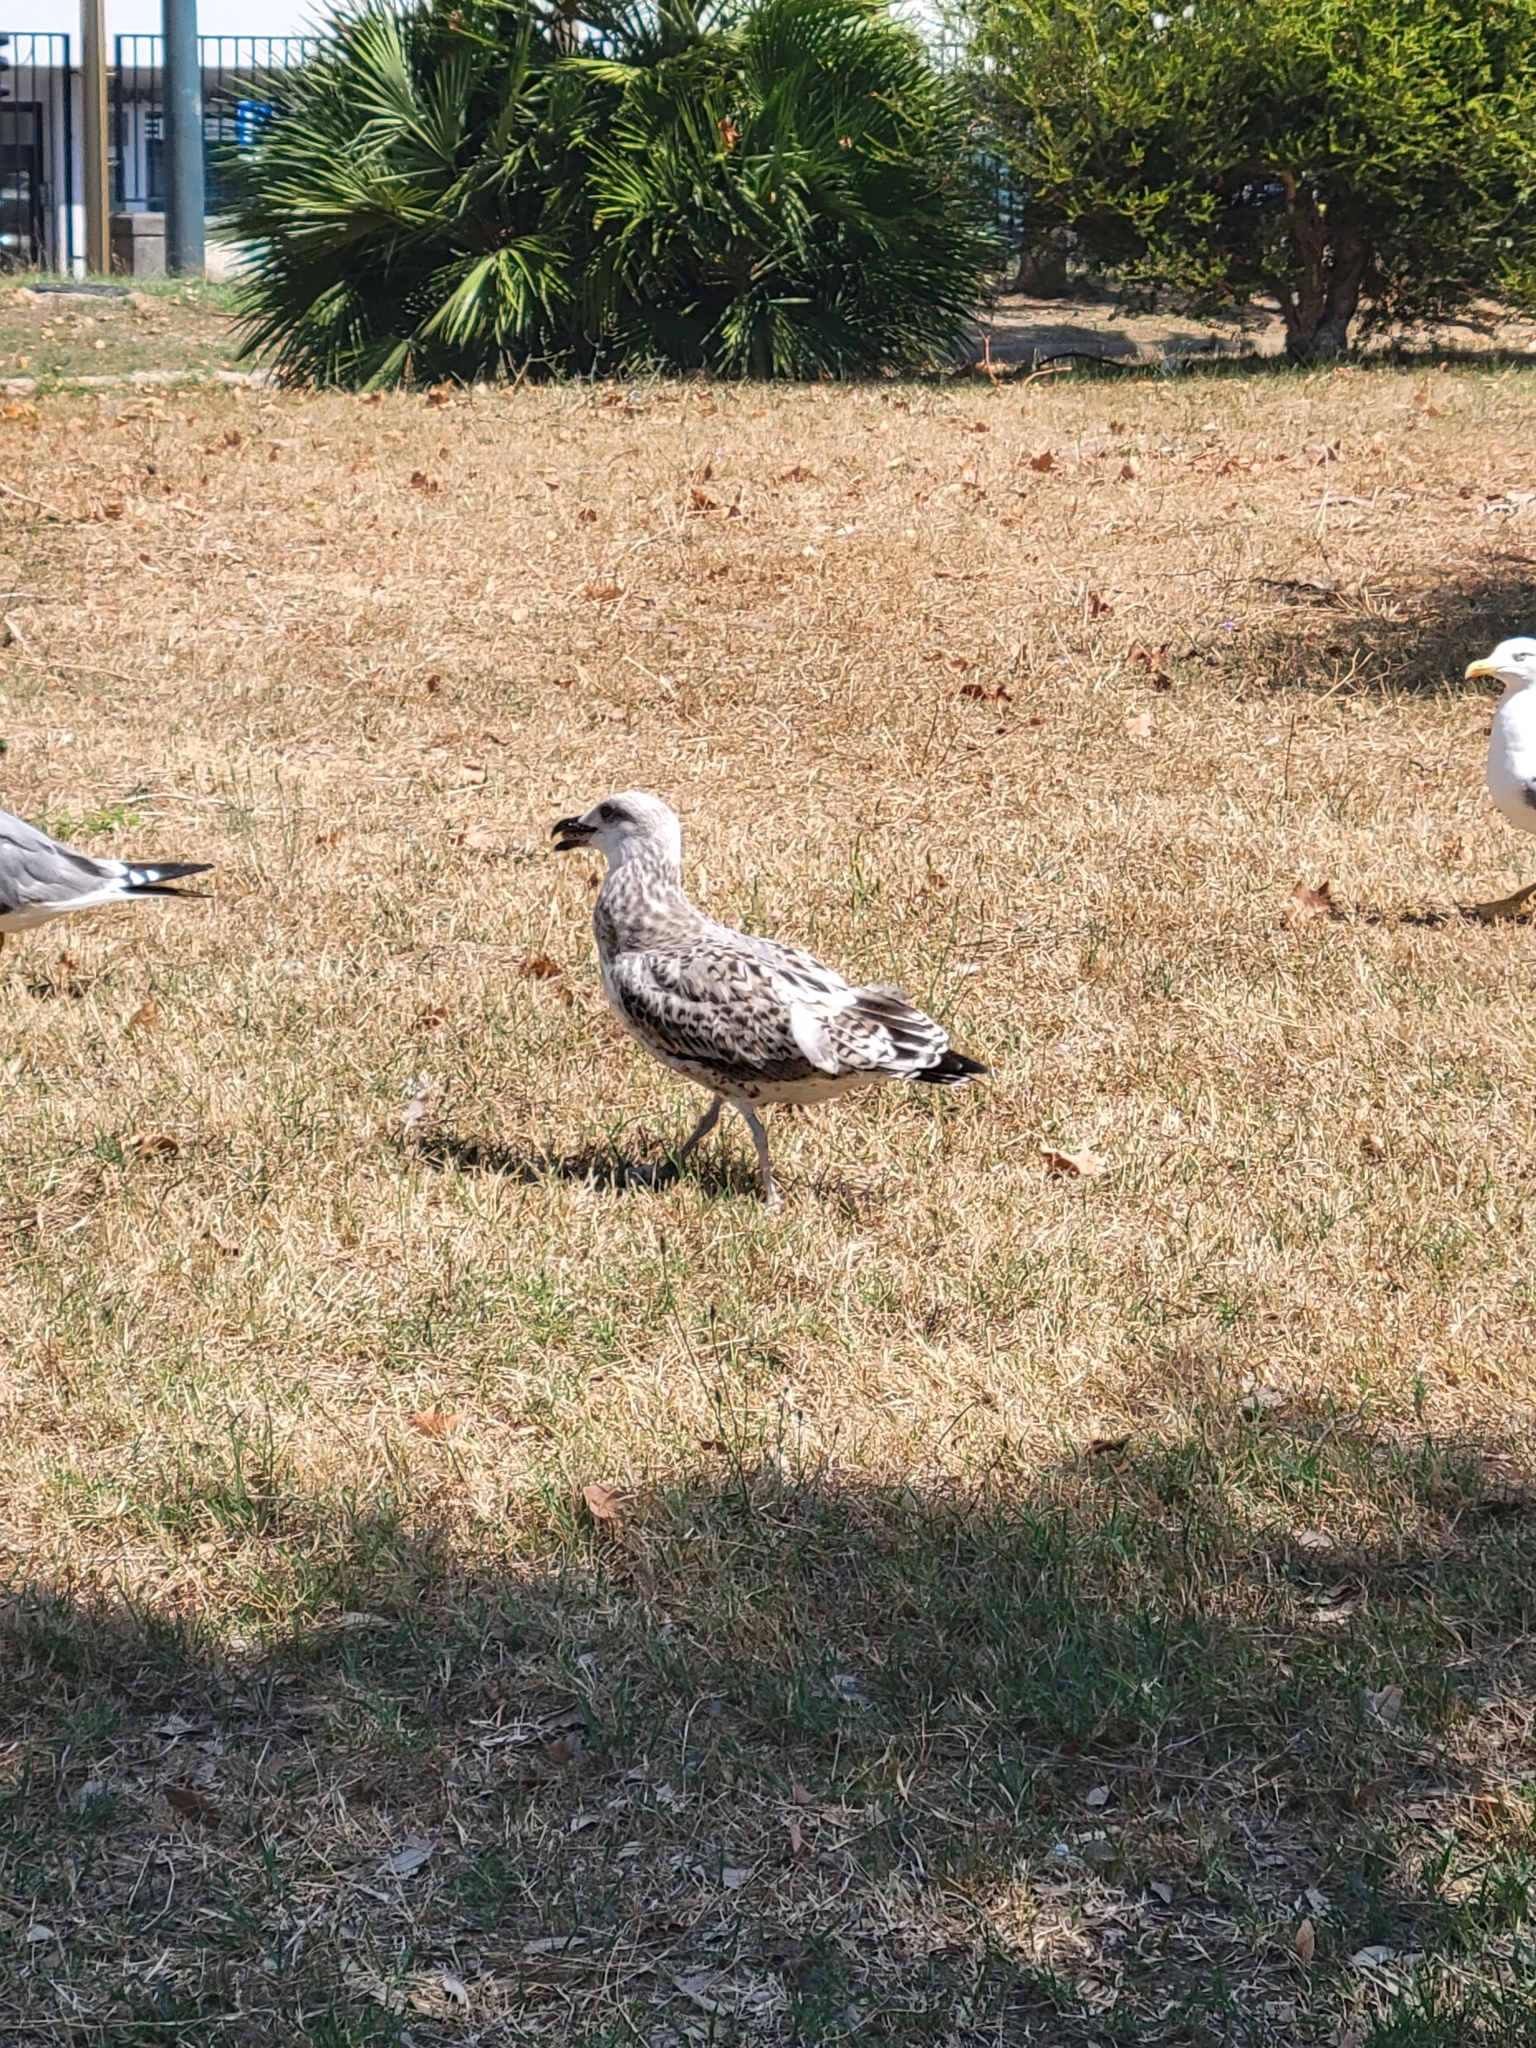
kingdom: Animalia
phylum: Chordata
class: Aves
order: Charadriiformes
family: Laridae
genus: Larus
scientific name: Larus michahellis
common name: Yellow-legged gull
